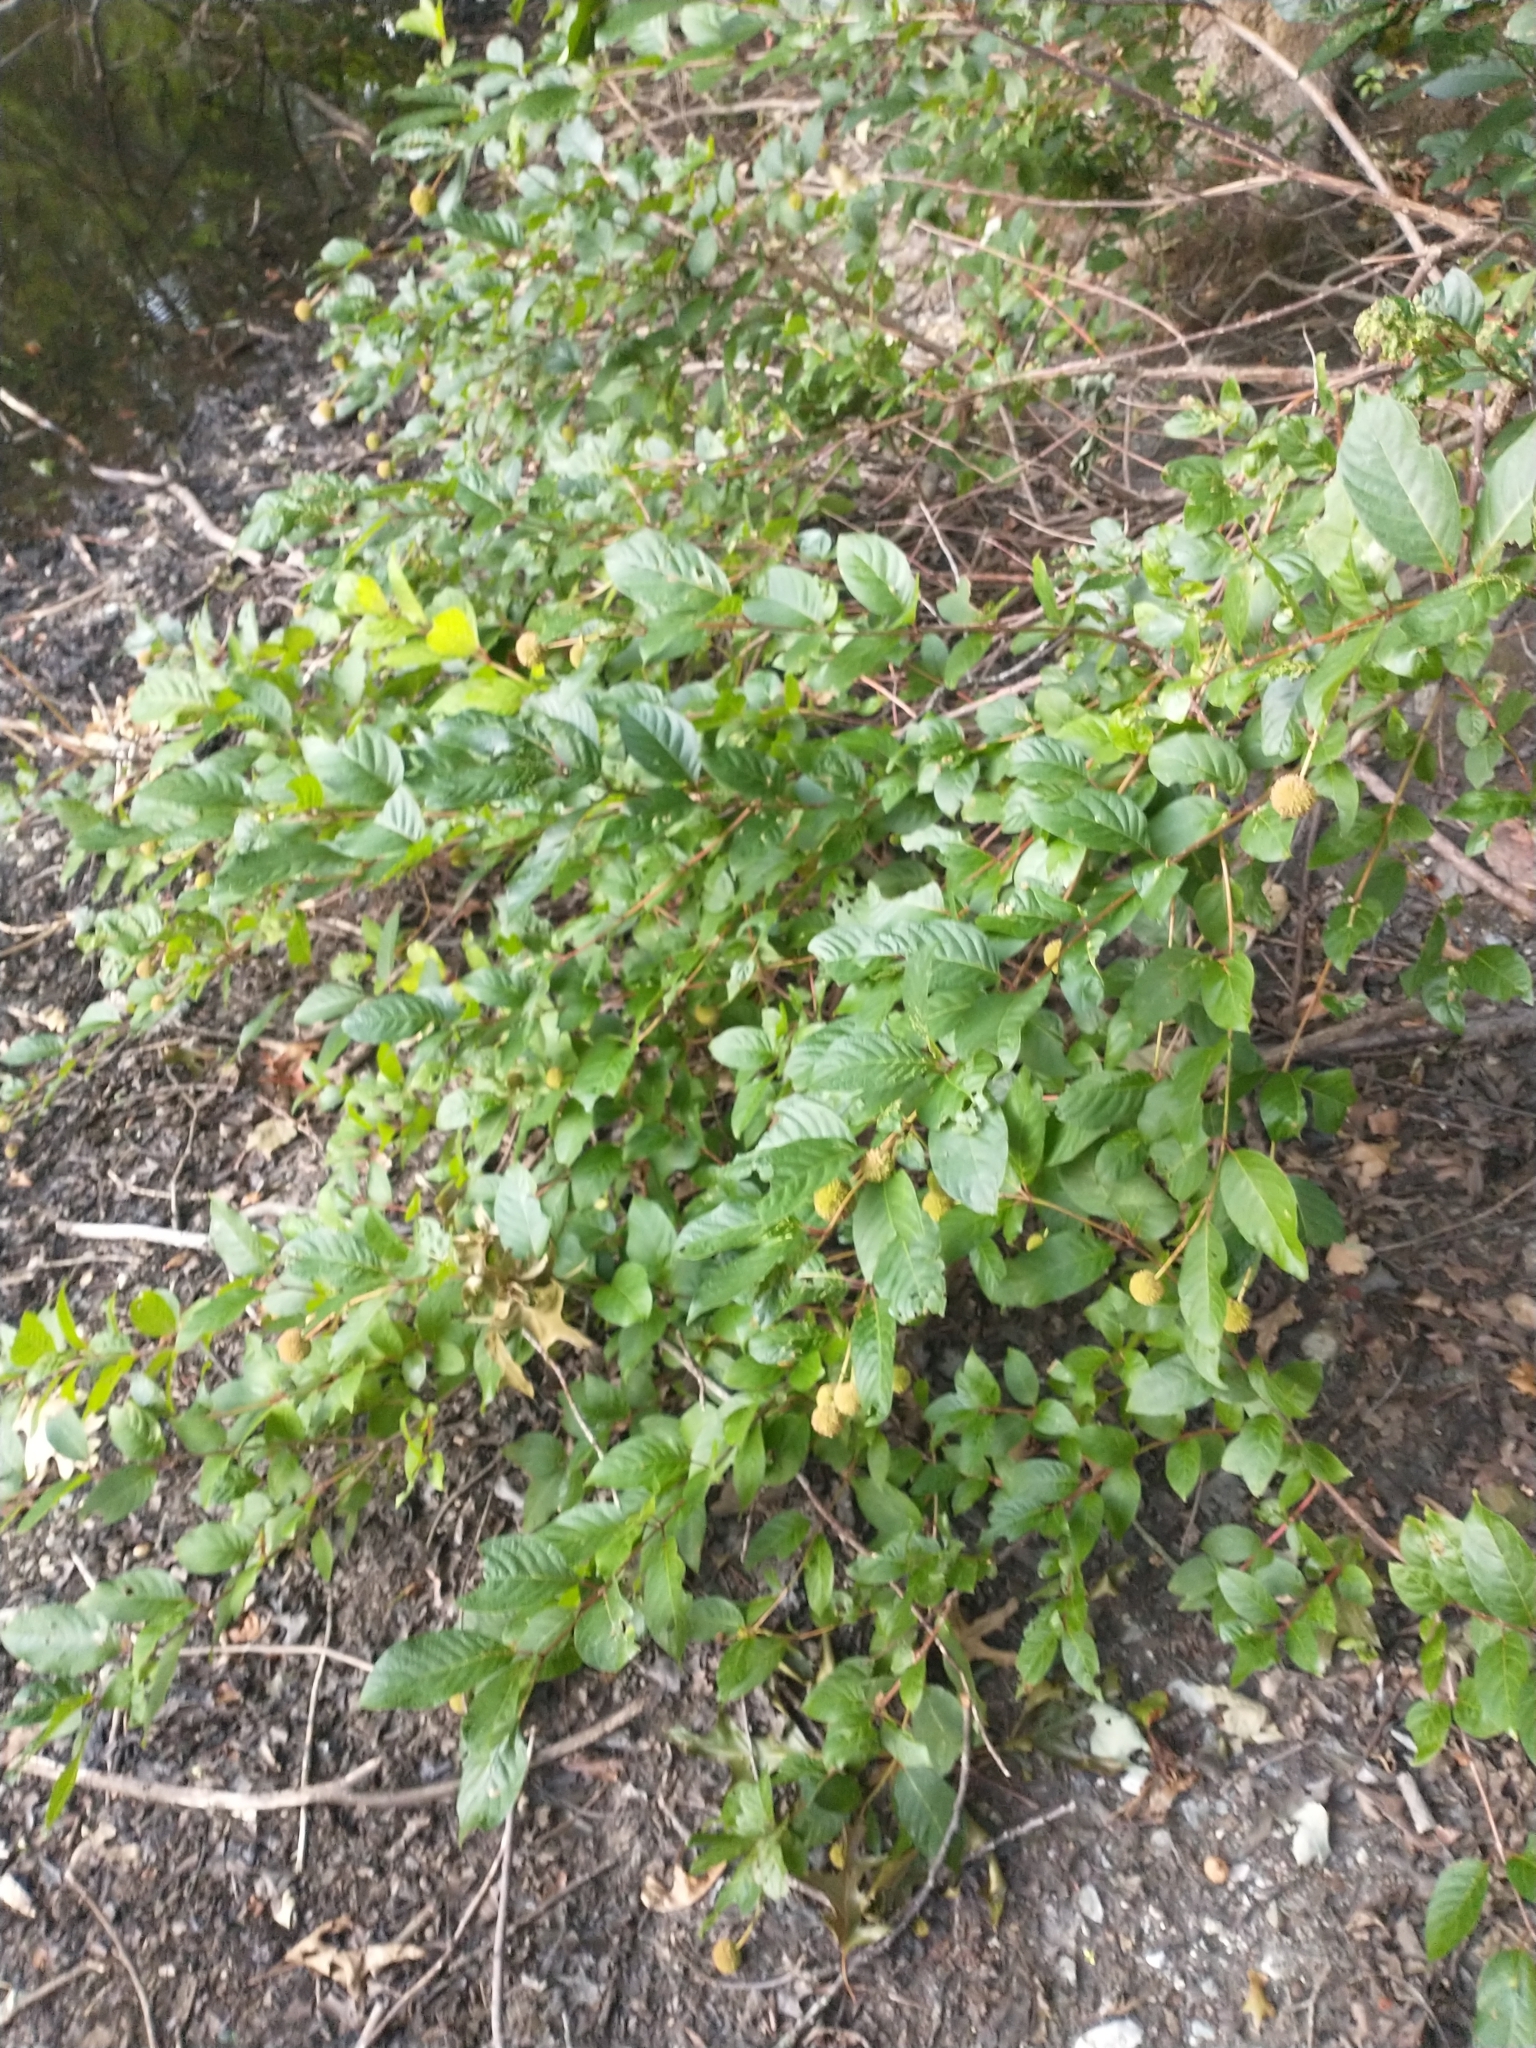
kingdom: Plantae
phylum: Tracheophyta
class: Magnoliopsida
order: Gentianales
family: Rubiaceae
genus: Cephalanthus
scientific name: Cephalanthus occidentalis
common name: Button-willow
